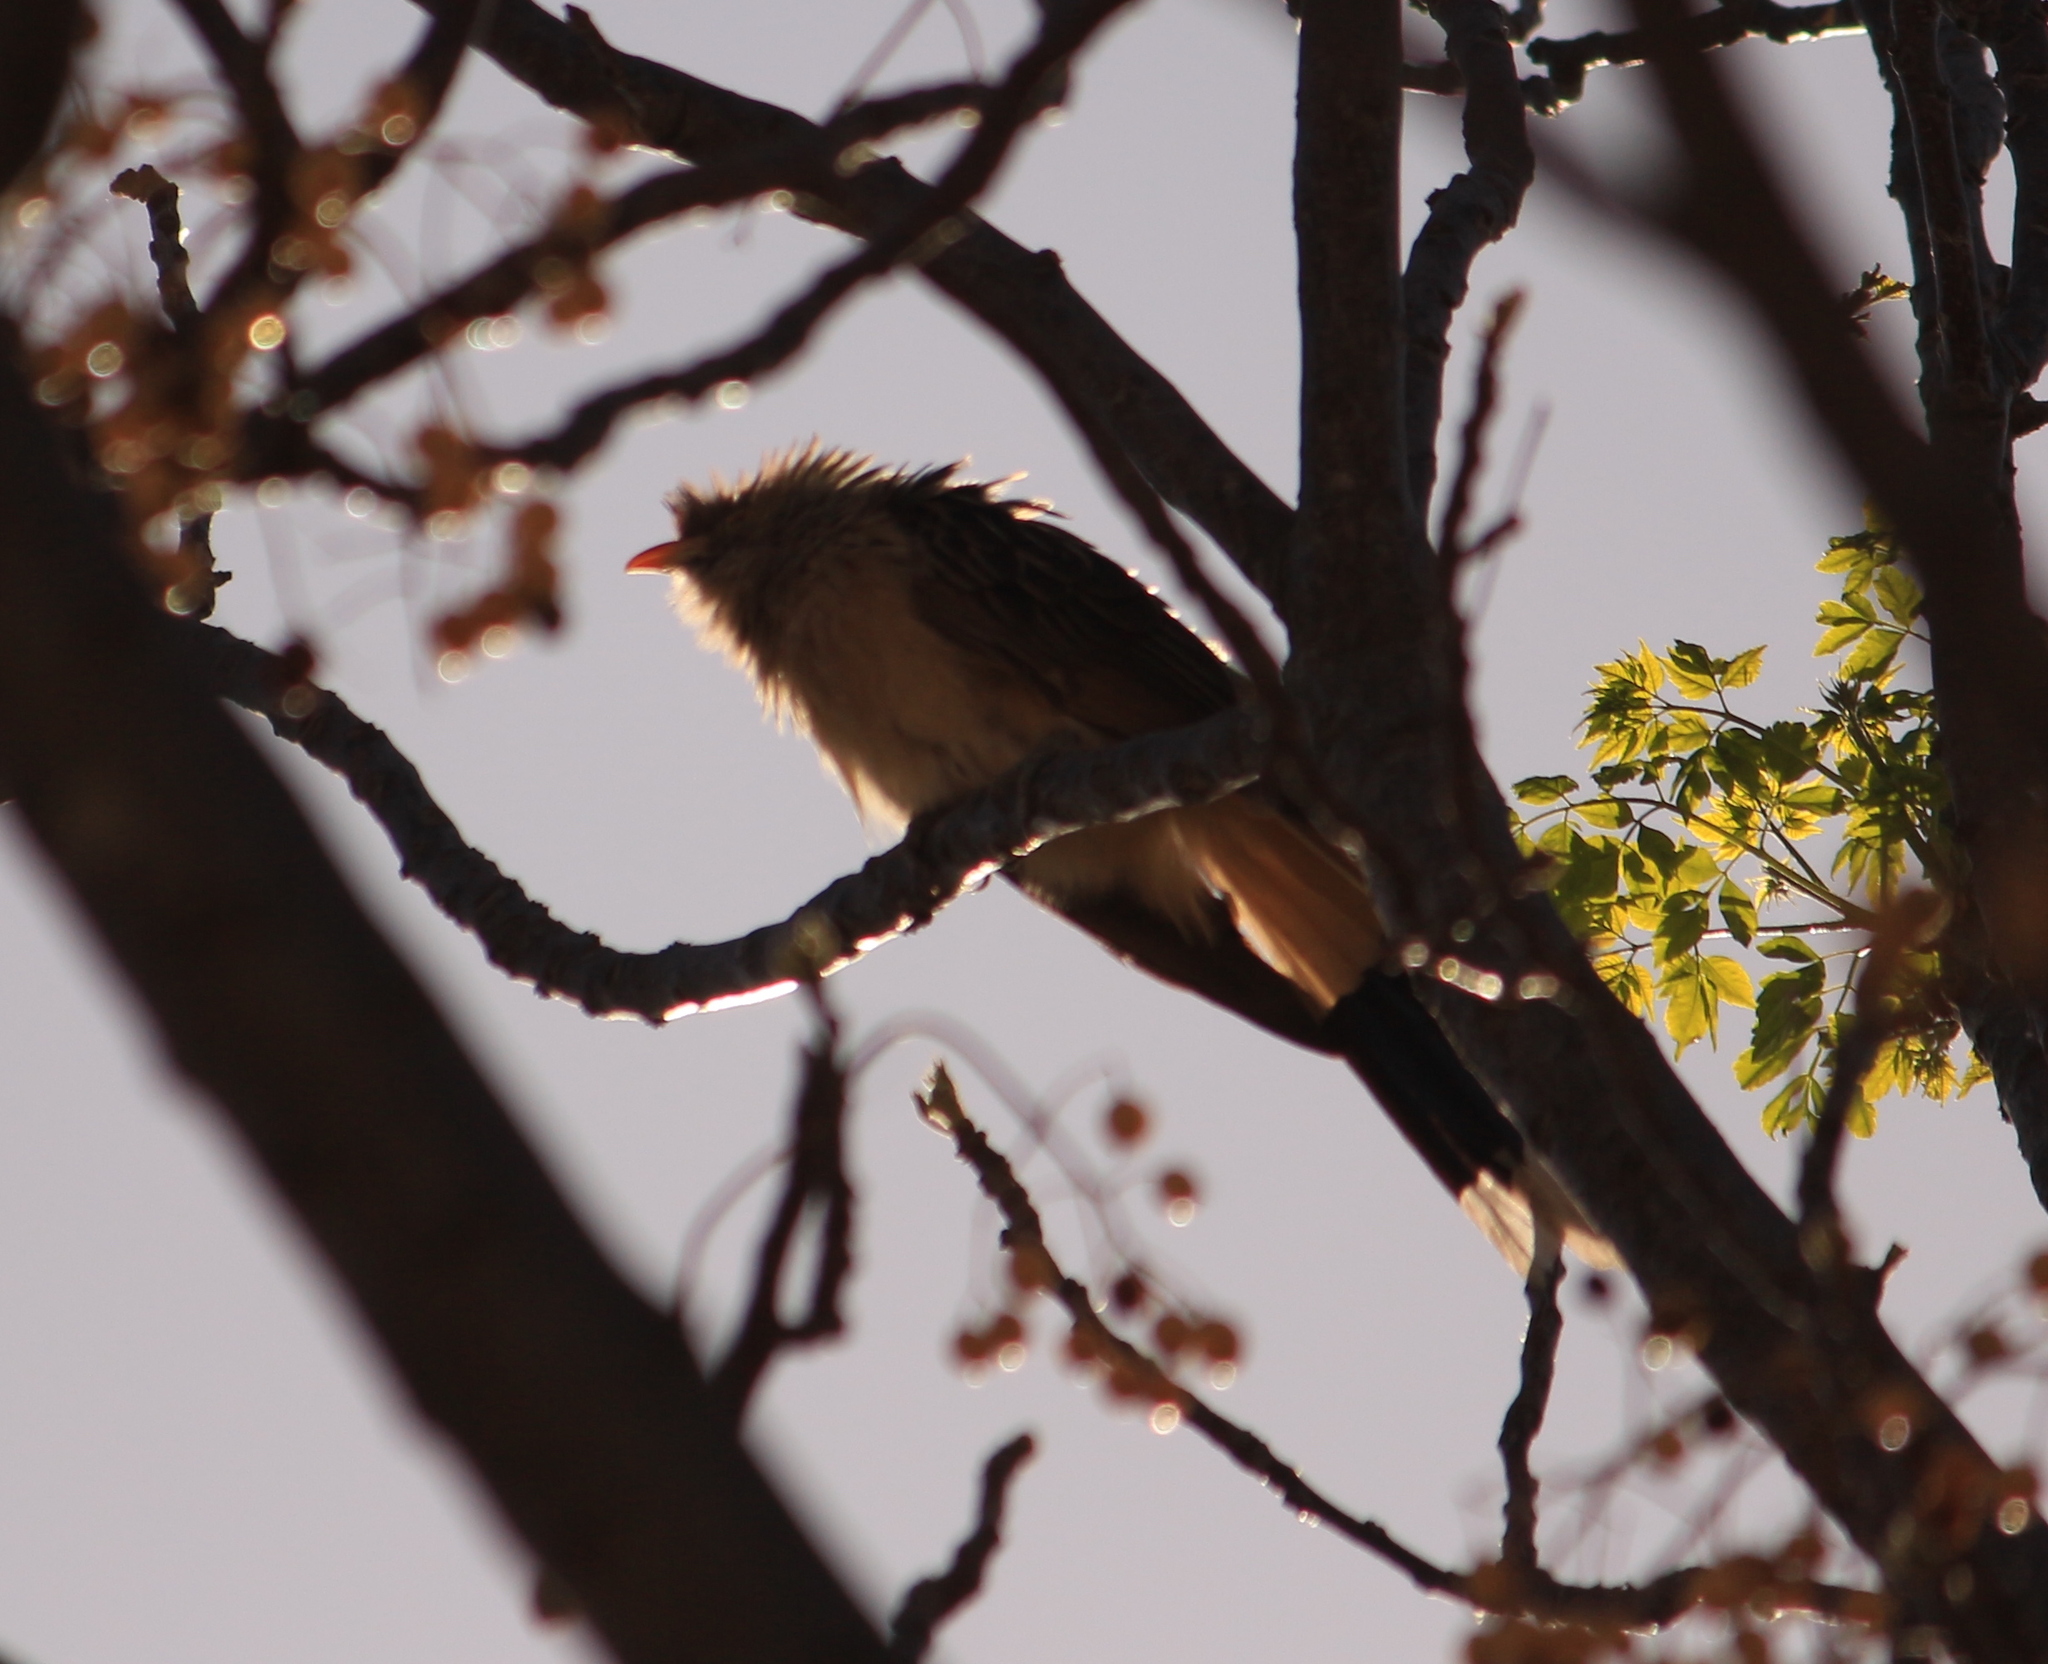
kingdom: Animalia
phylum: Chordata
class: Aves
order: Cuculiformes
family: Cuculidae
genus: Guira
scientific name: Guira guira
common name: Guira cuckoo
